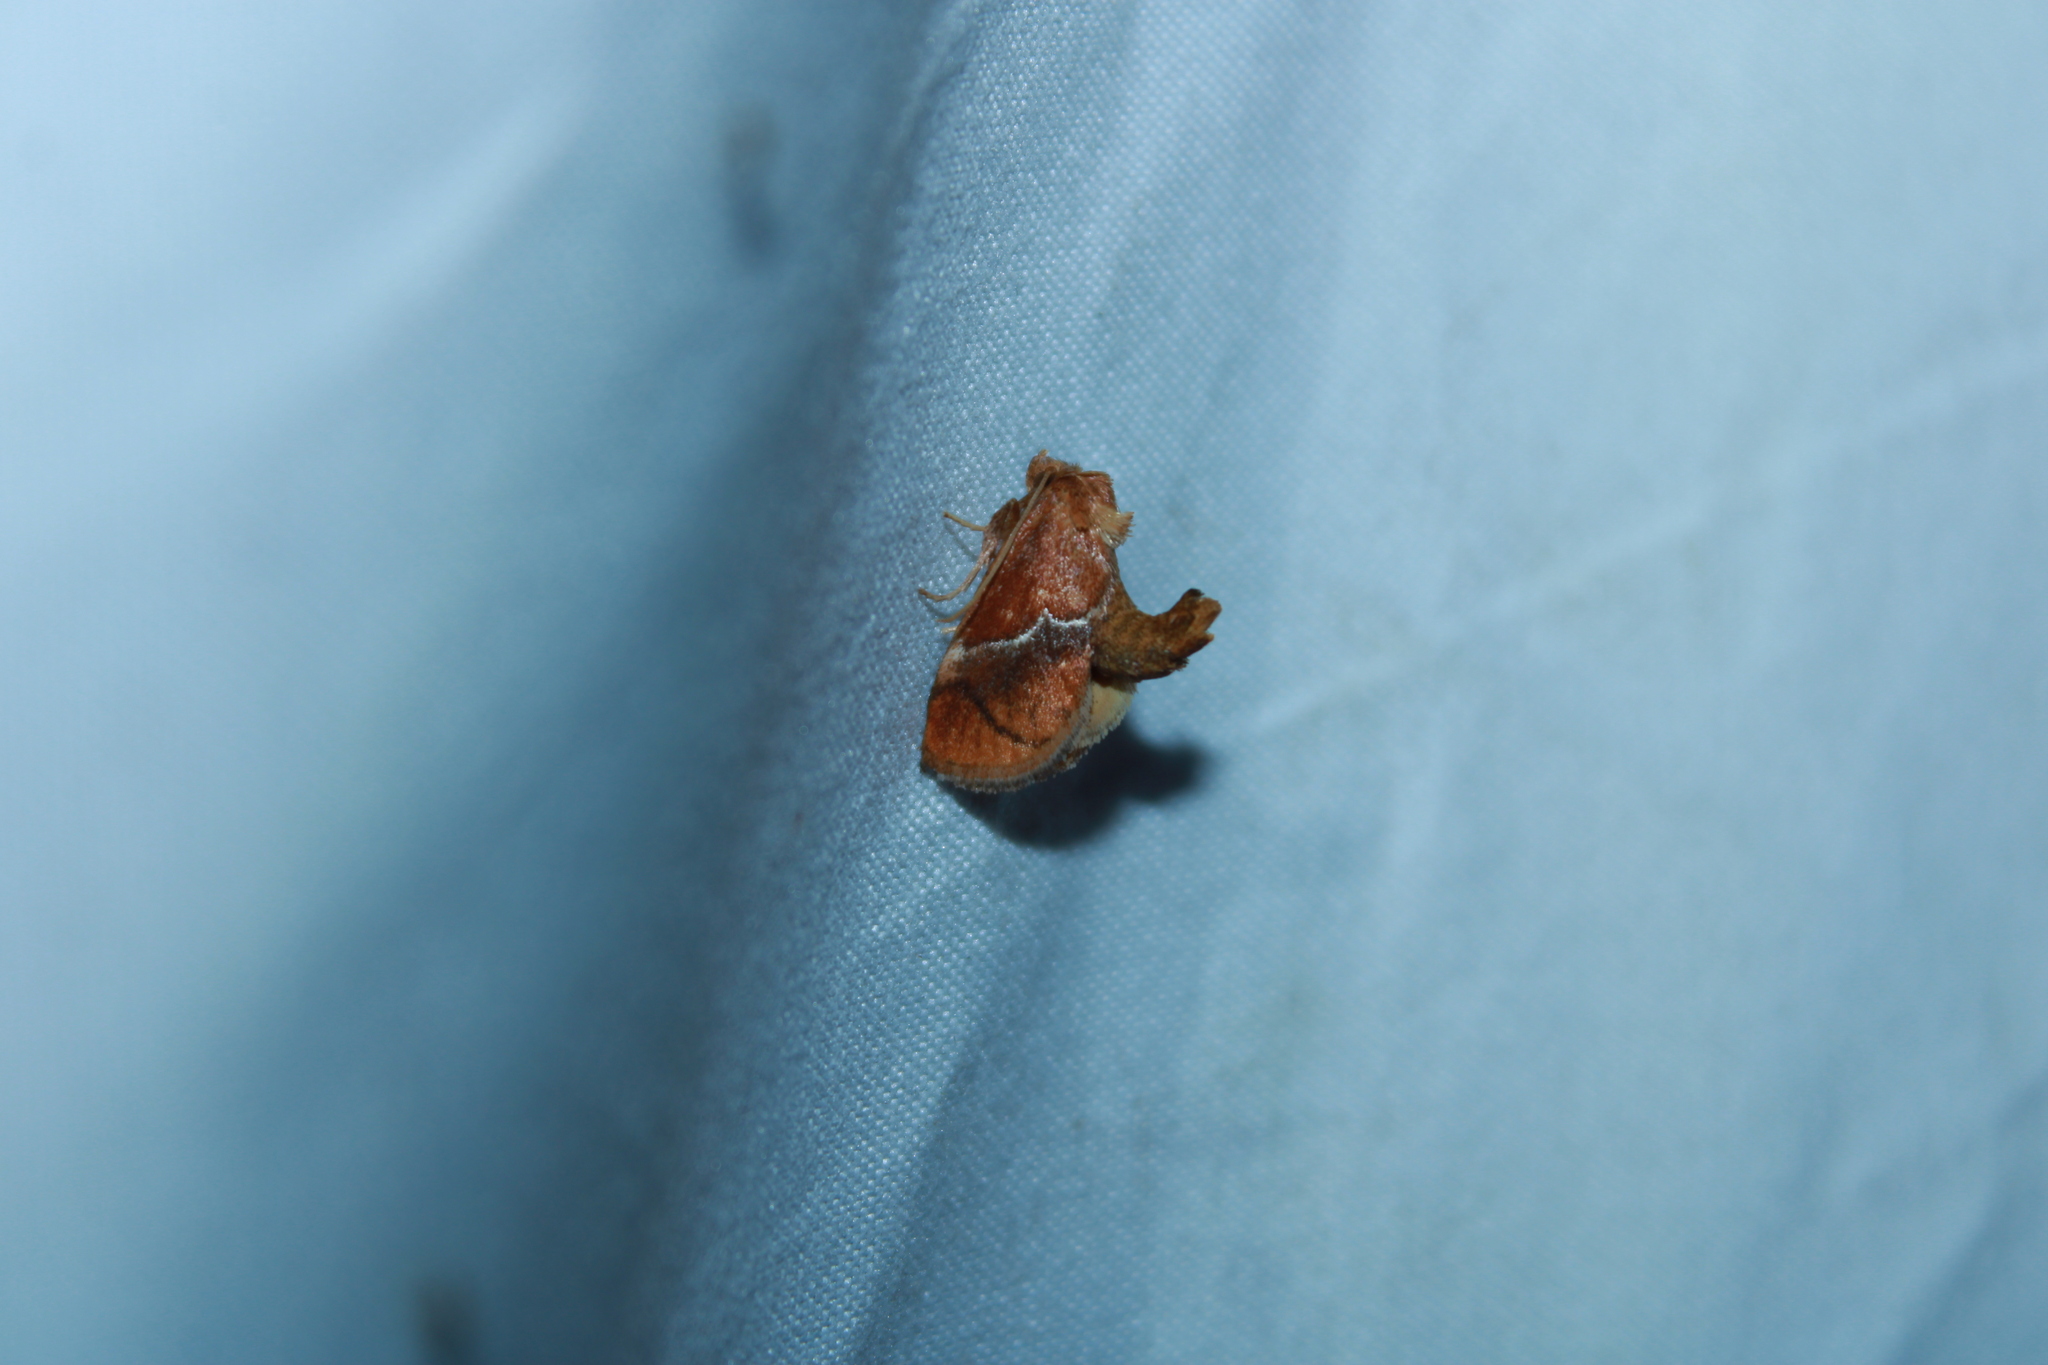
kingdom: Animalia
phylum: Arthropoda
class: Insecta
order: Lepidoptera
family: Limacodidae
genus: Lithacodes
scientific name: Lithacodes fasciola
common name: Yellow-shouldered slug moth
